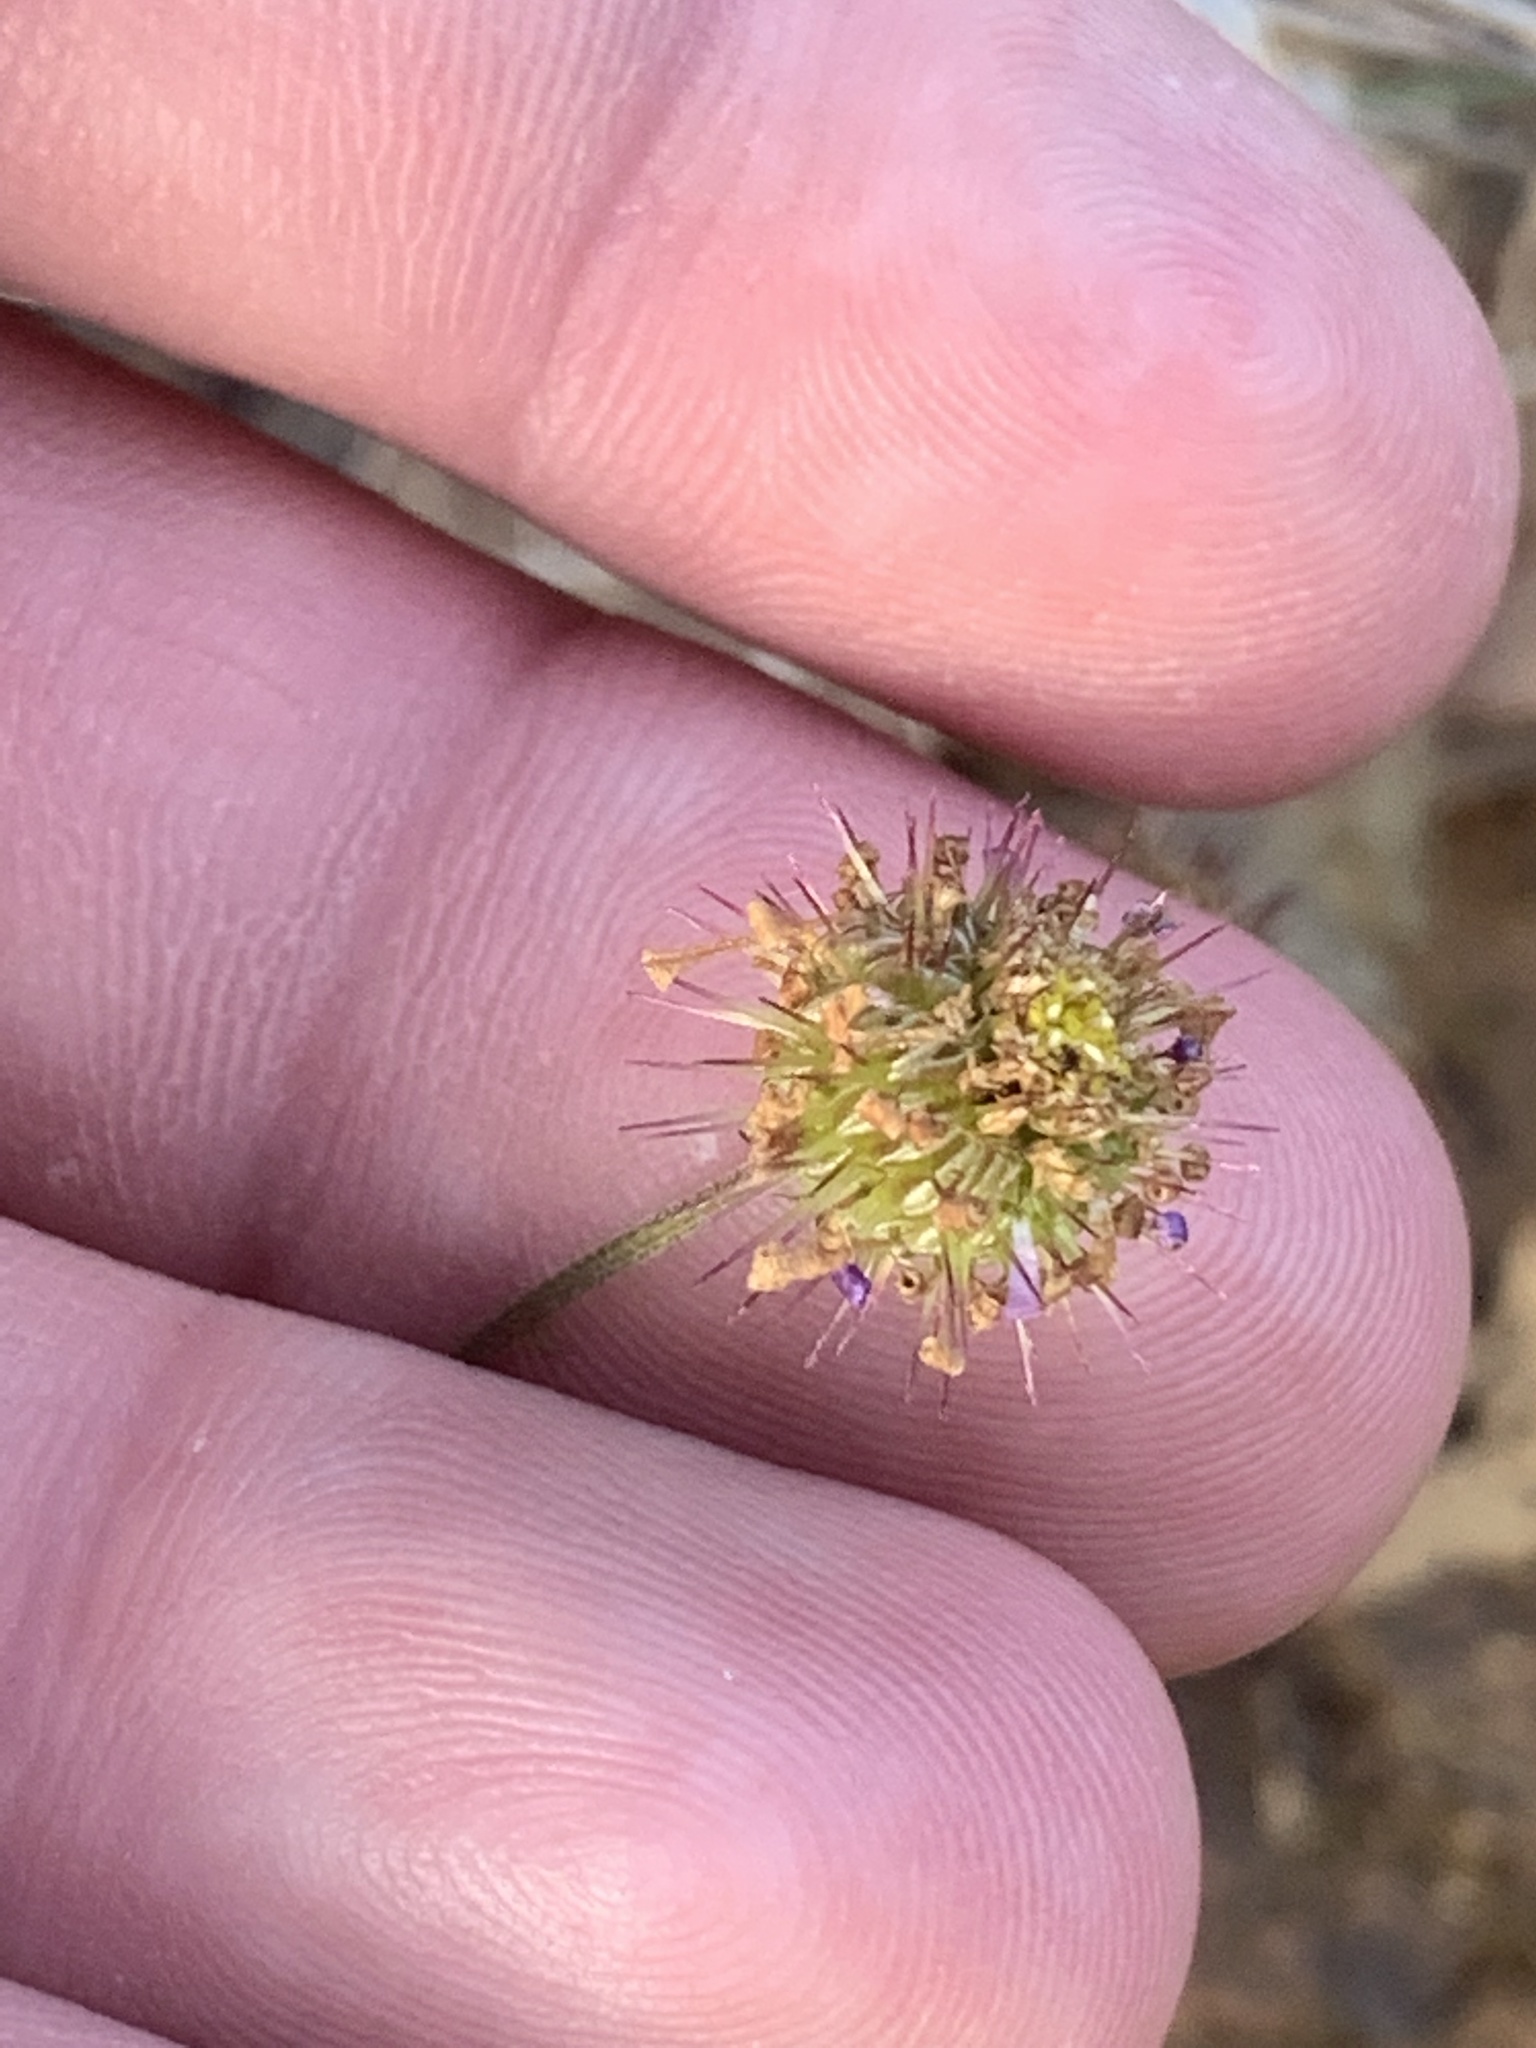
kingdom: Plantae
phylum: Tracheophyta
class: Magnoliopsida
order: Asterales
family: Asteraceae
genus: Calotis
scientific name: Calotis cuneifolia
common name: Bur-daisy
